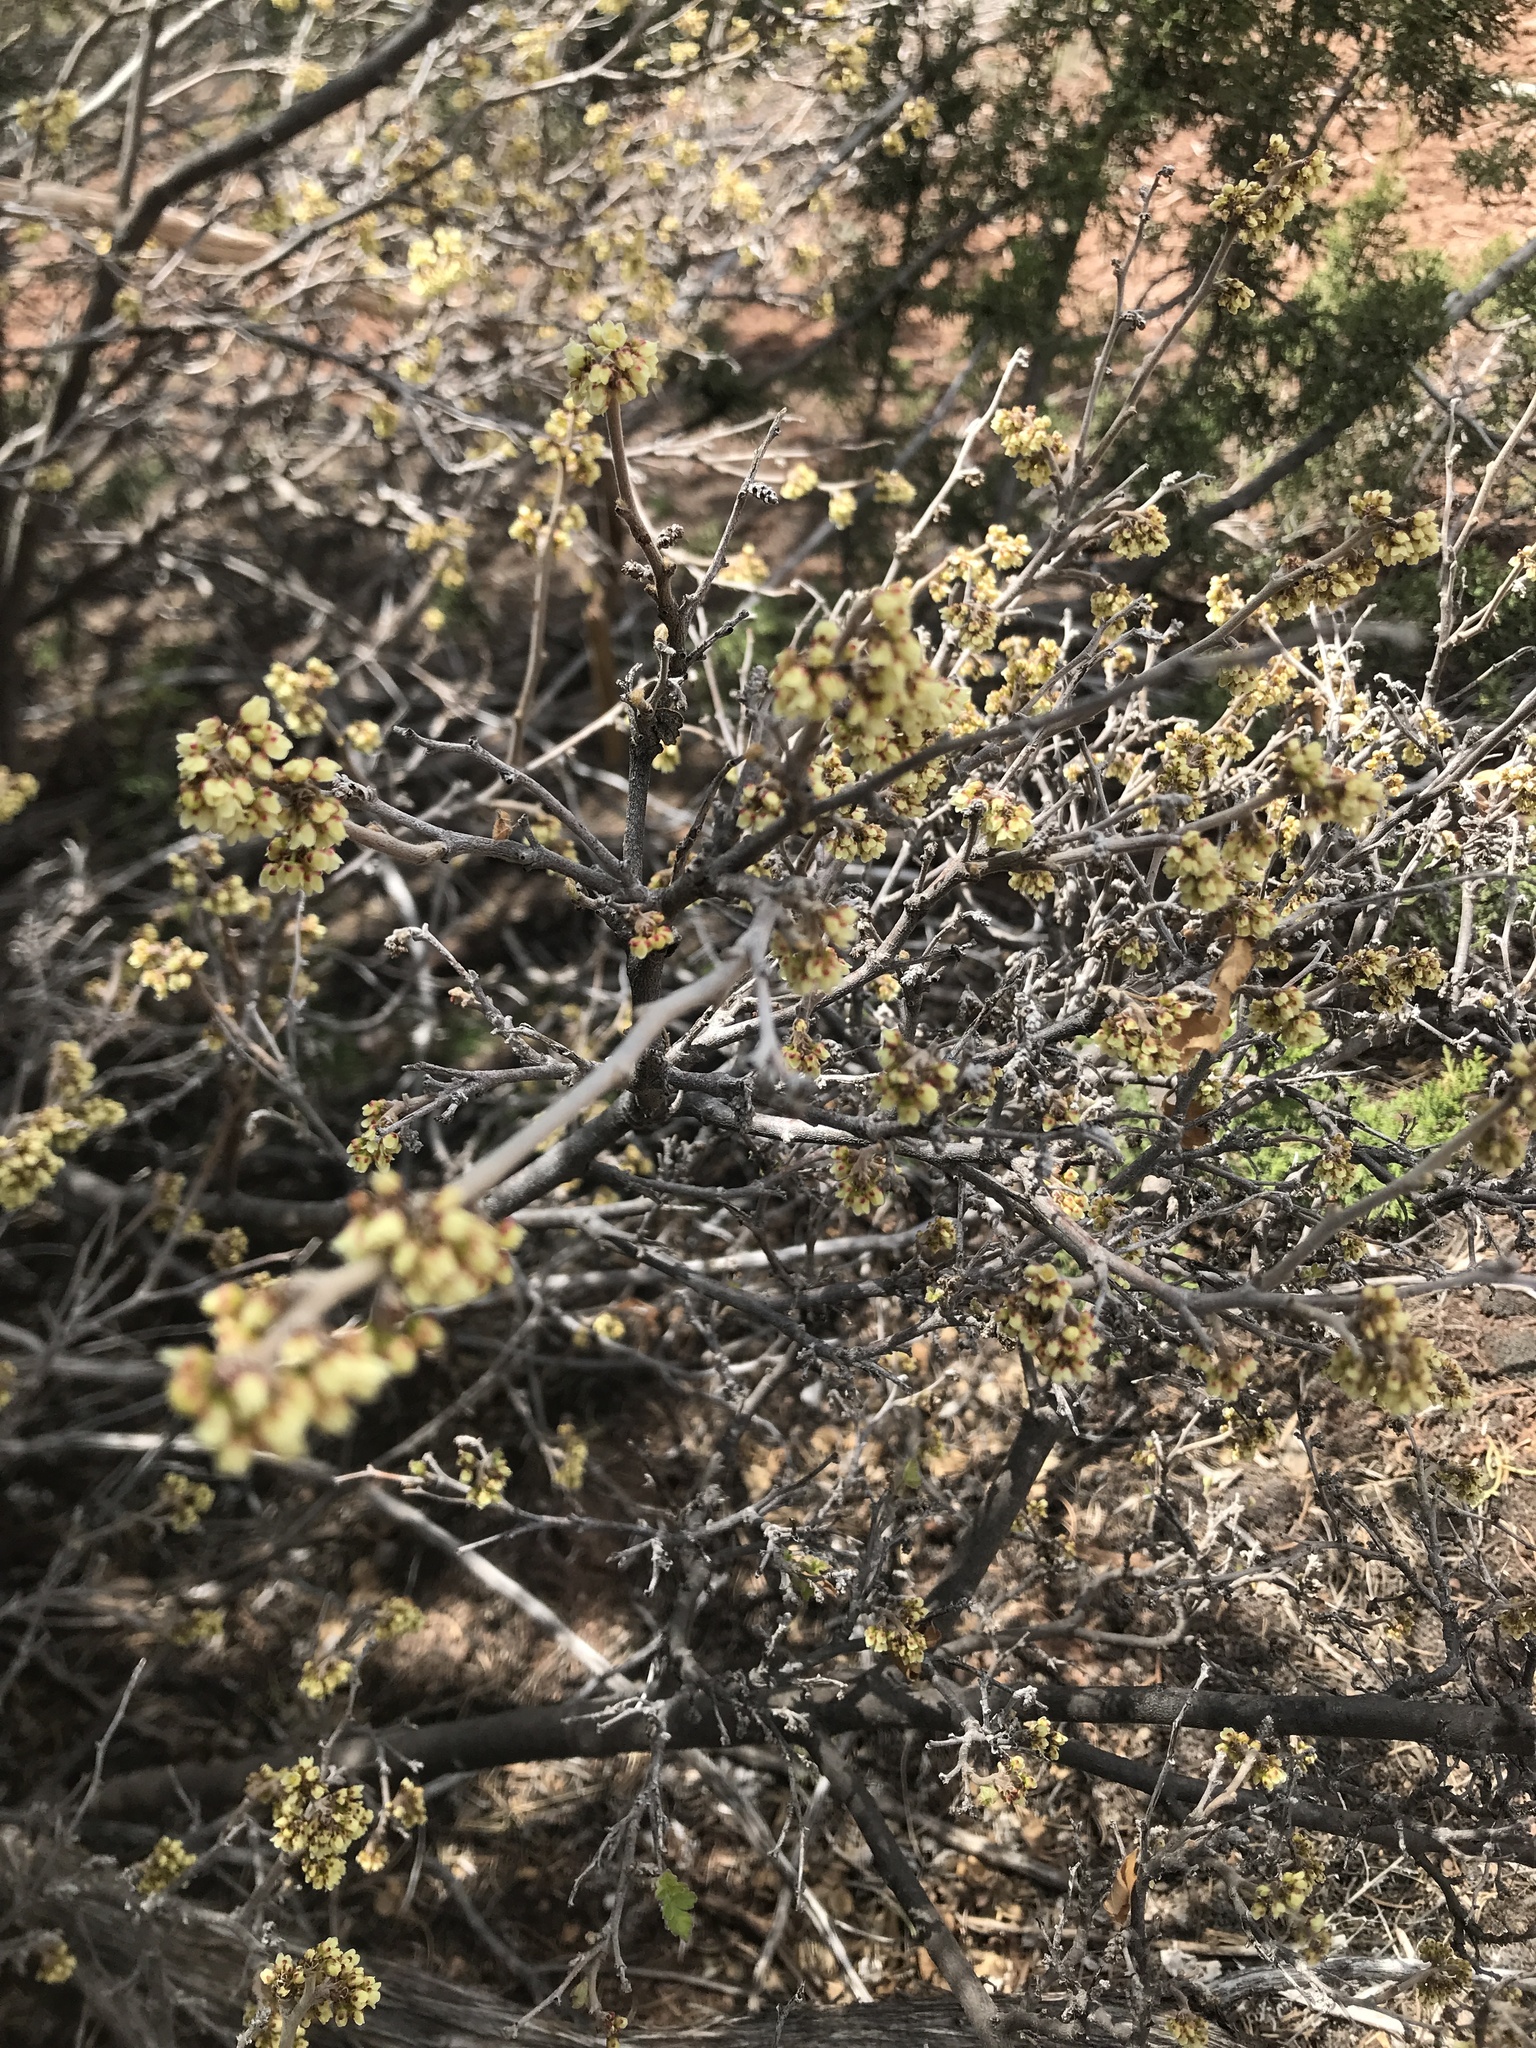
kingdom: Plantae
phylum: Tracheophyta
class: Magnoliopsida
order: Sapindales
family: Anacardiaceae
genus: Rhus
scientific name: Rhus trilobata
